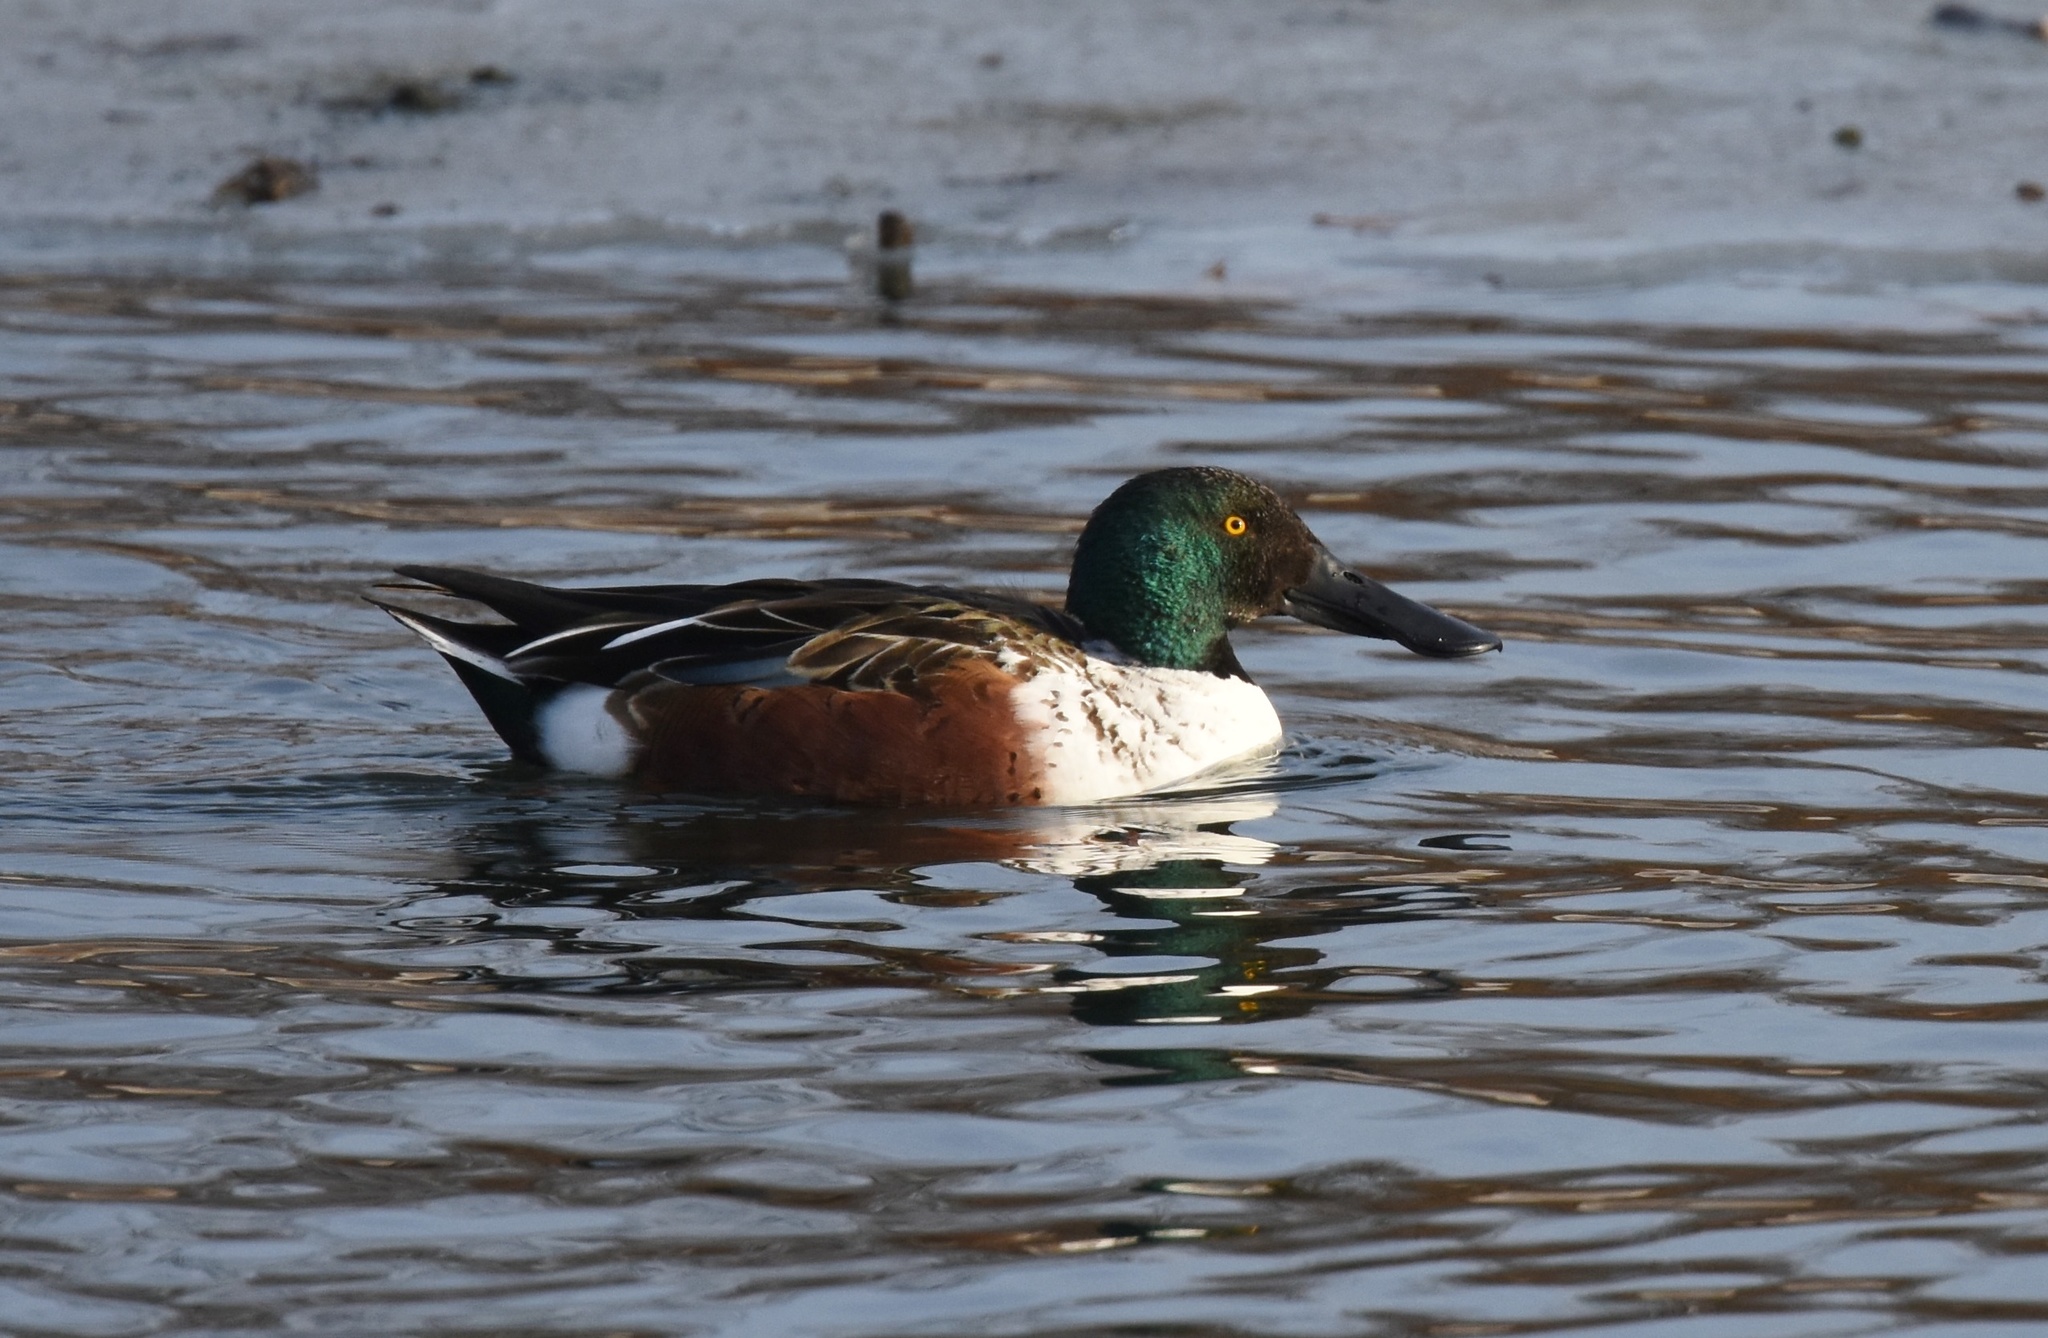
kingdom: Animalia
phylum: Chordata
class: Aves
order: Anseriformes
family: Anatidae
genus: Spatula
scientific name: Spatula clypeata
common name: Northern shoveler
